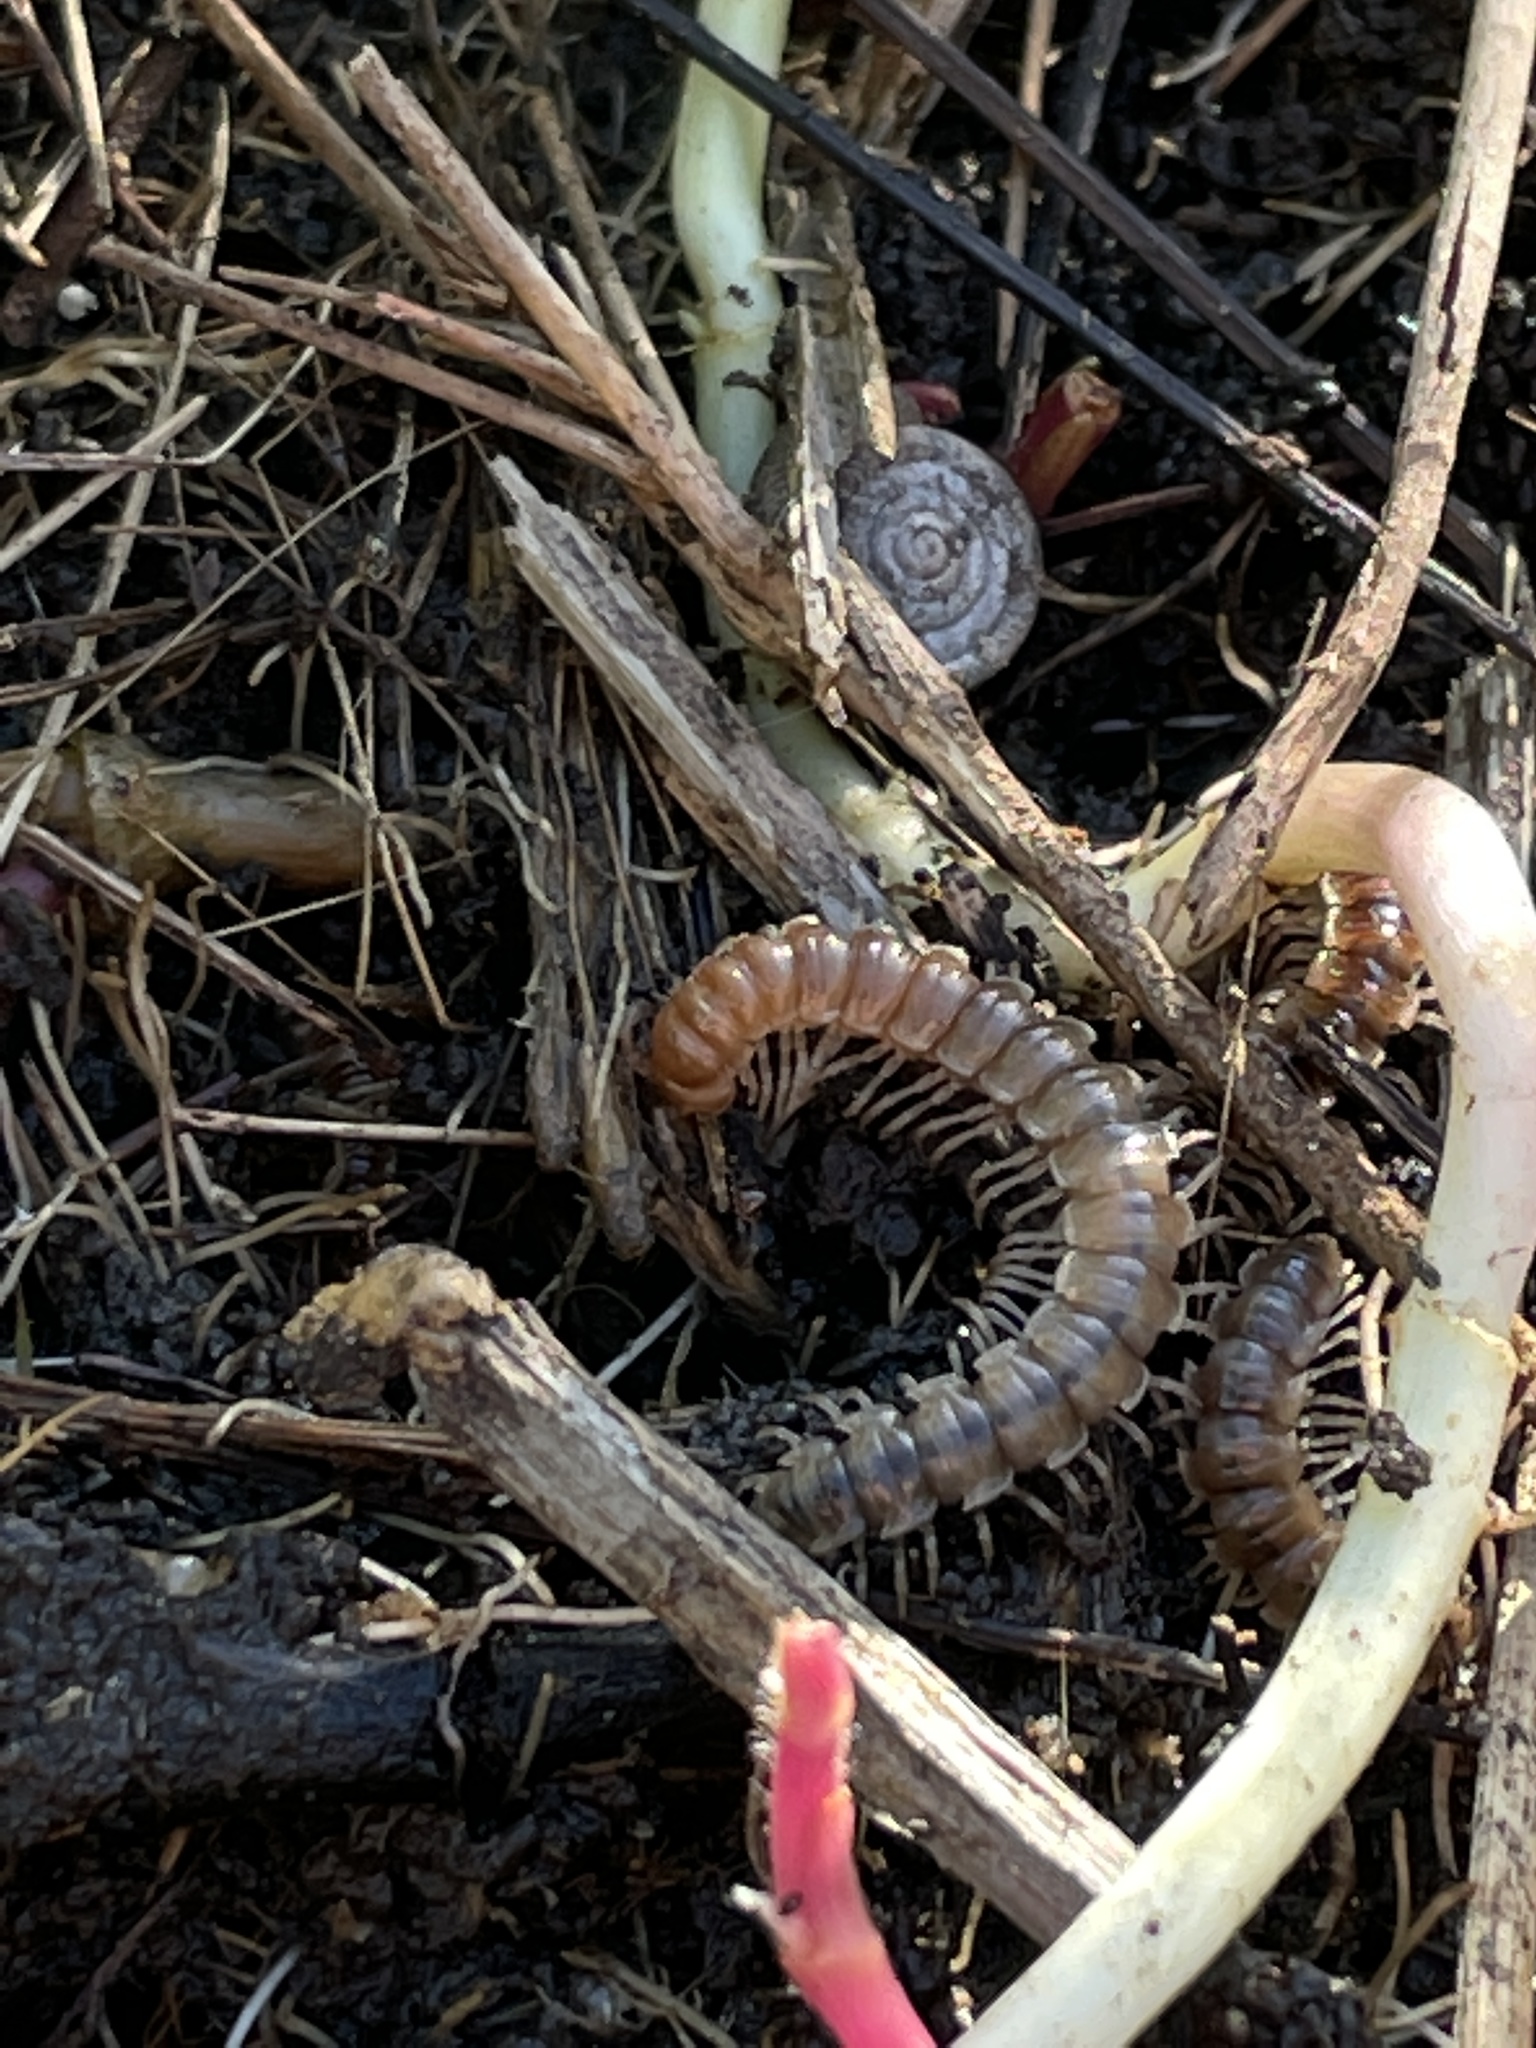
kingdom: Animalia
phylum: Arthropoda
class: Diplopoda
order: Polydesmida
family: Paradoxosomatidae
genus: Oxidus
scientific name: Oxidus gracilis
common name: Greenhouse millipede
